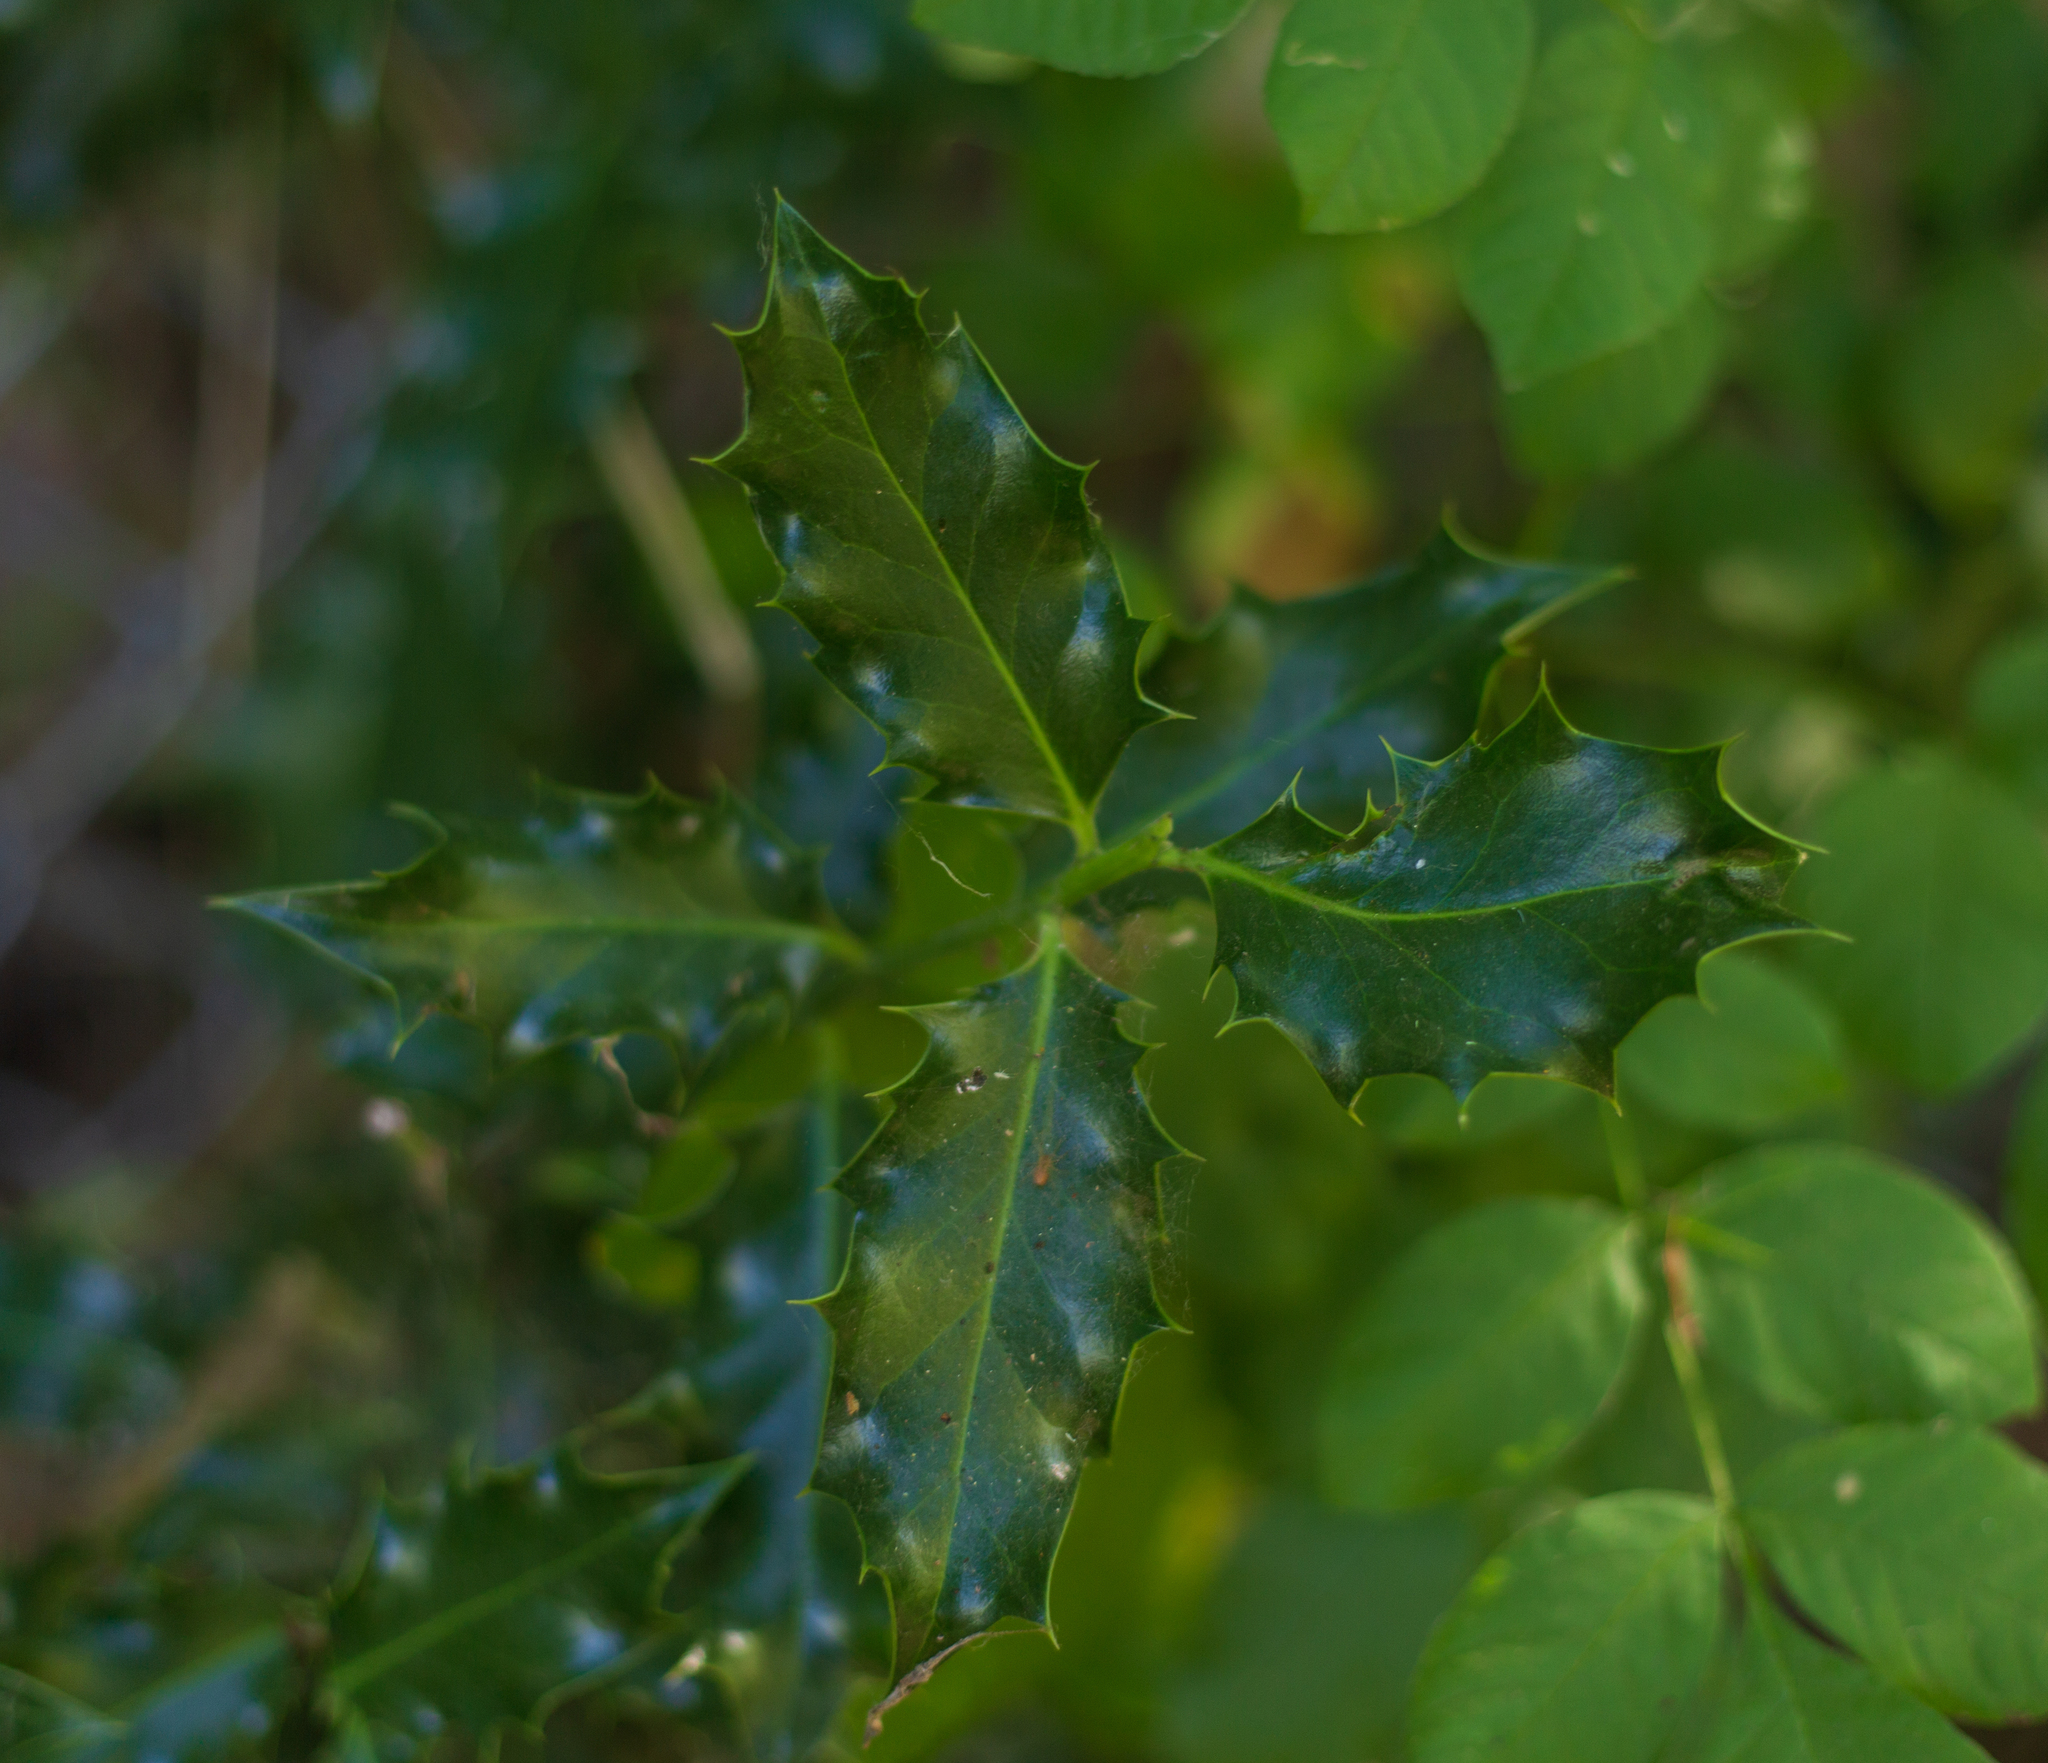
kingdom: Plantae
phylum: Tracheophyta
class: Magnoliopsida
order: Aquifoliales
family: Aquifoliaceae
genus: Ilex
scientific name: Ilex aquifolium
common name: English holly
